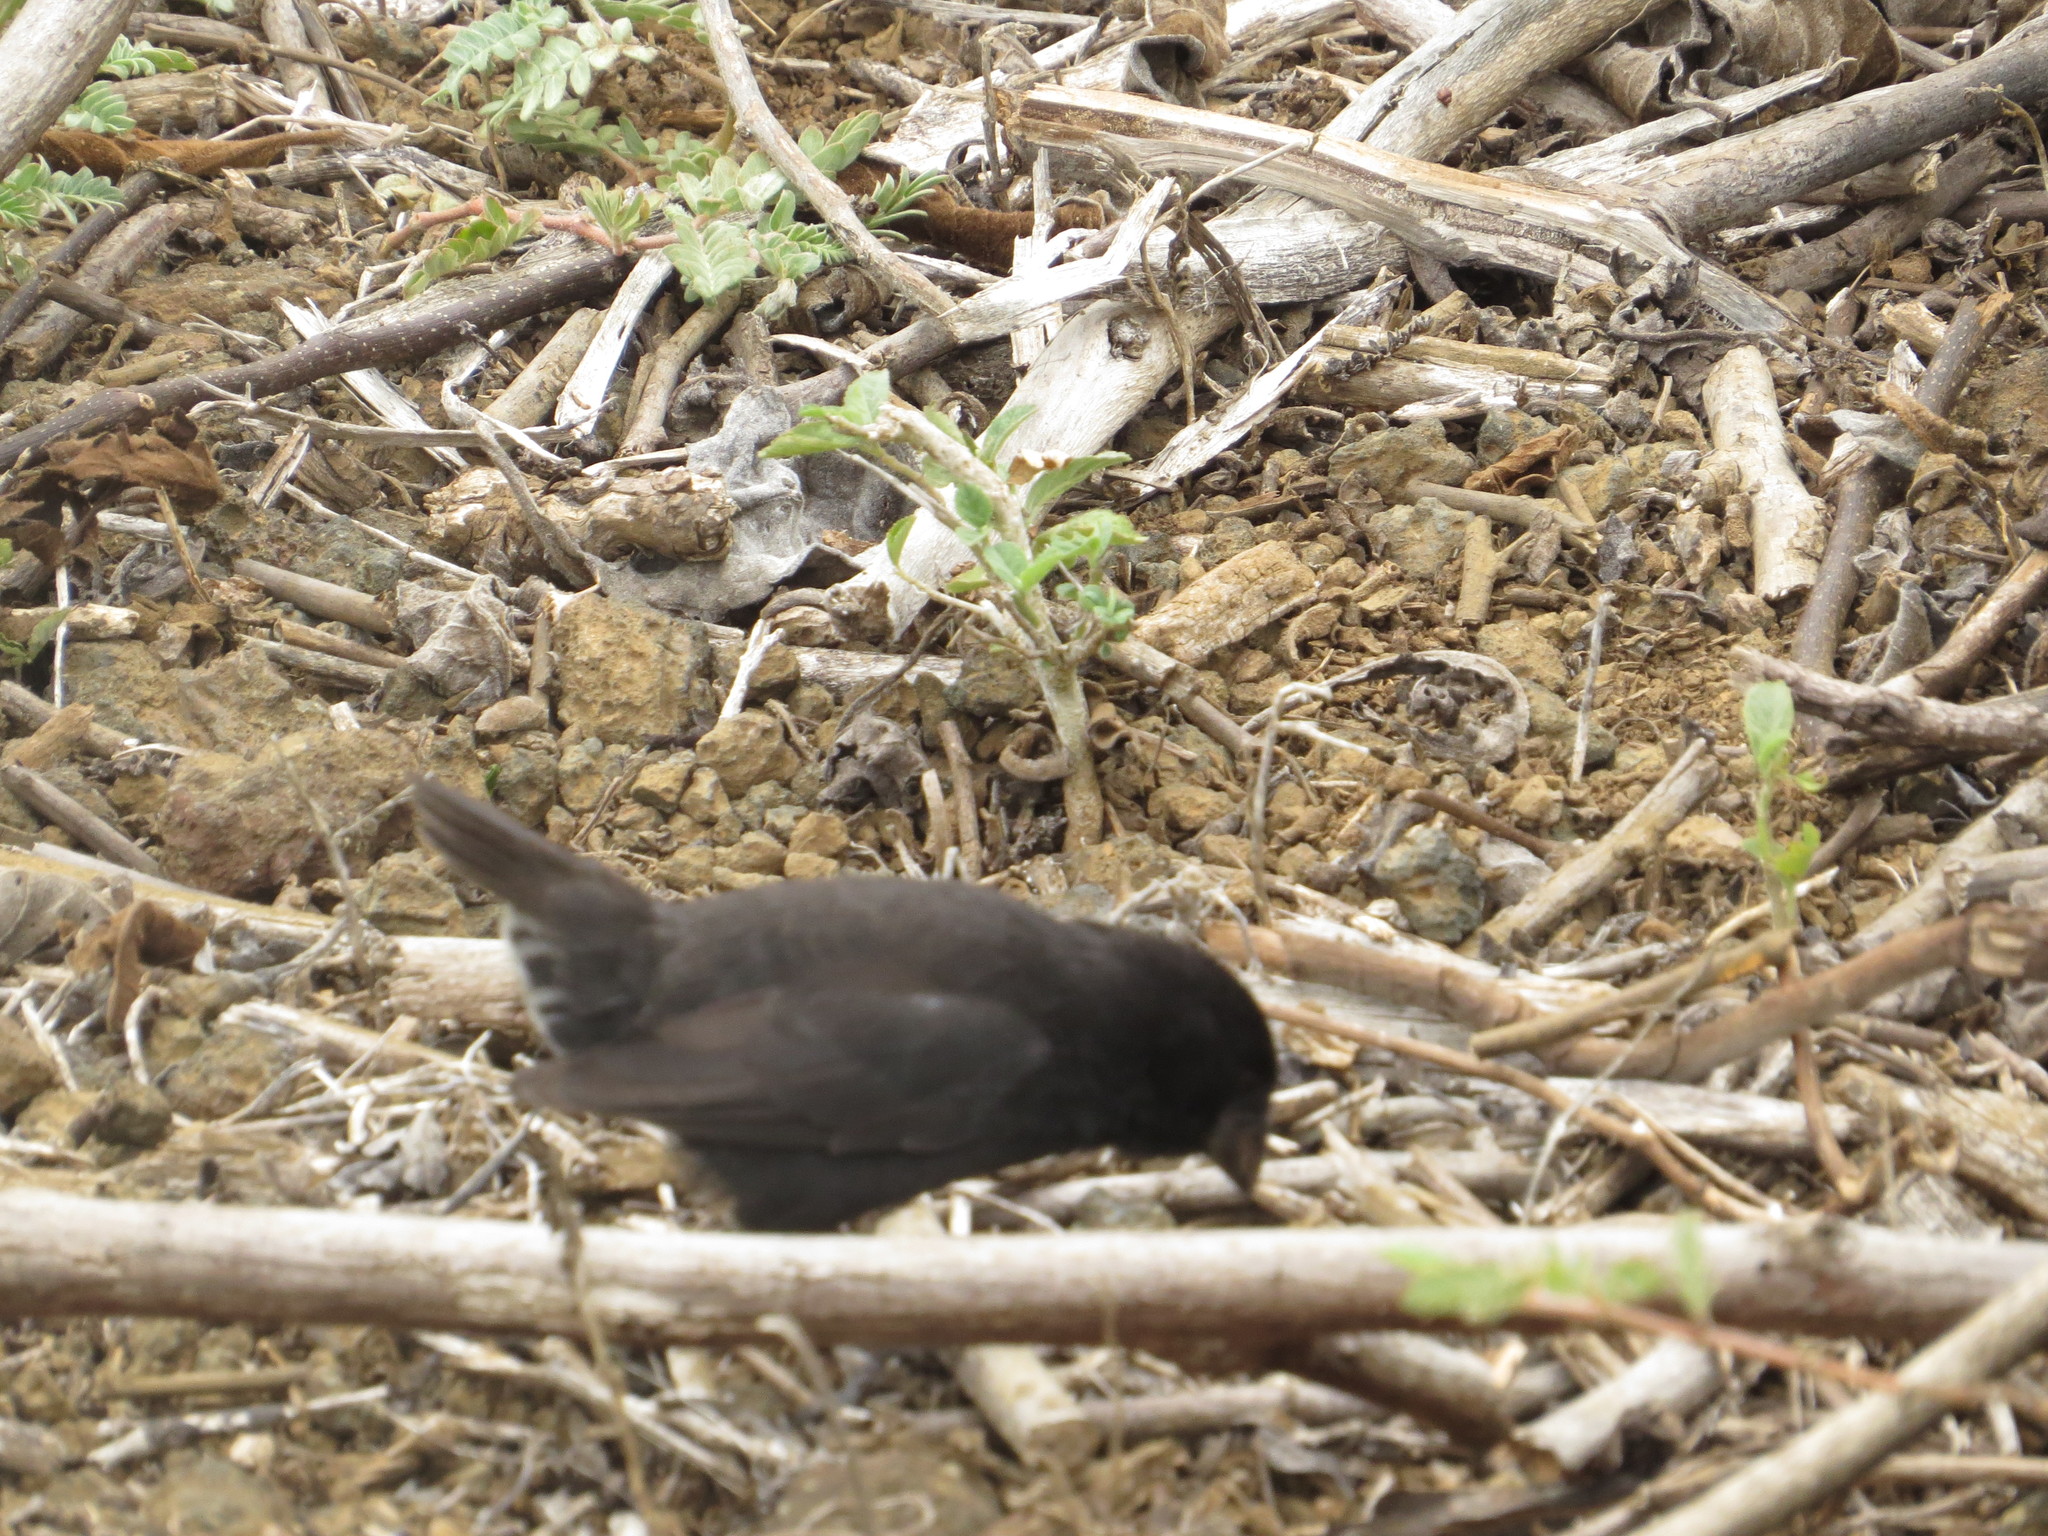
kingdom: Animalia
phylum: Chordata
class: Aves
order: Passeriformes
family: Thraupidae
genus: Geospiza
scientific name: Geospiza fortis
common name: Medium ground finch
